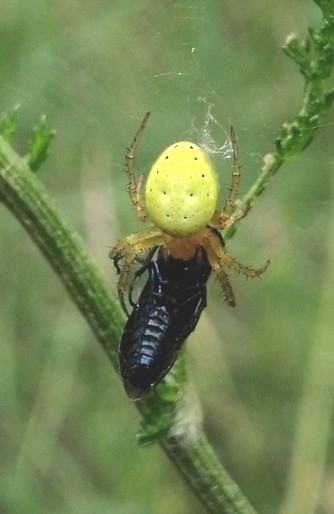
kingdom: Animalia
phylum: Arthropoda
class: Arachnida
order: Araneae
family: Araneidae
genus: Araniella
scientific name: Araniella cucurbitina
